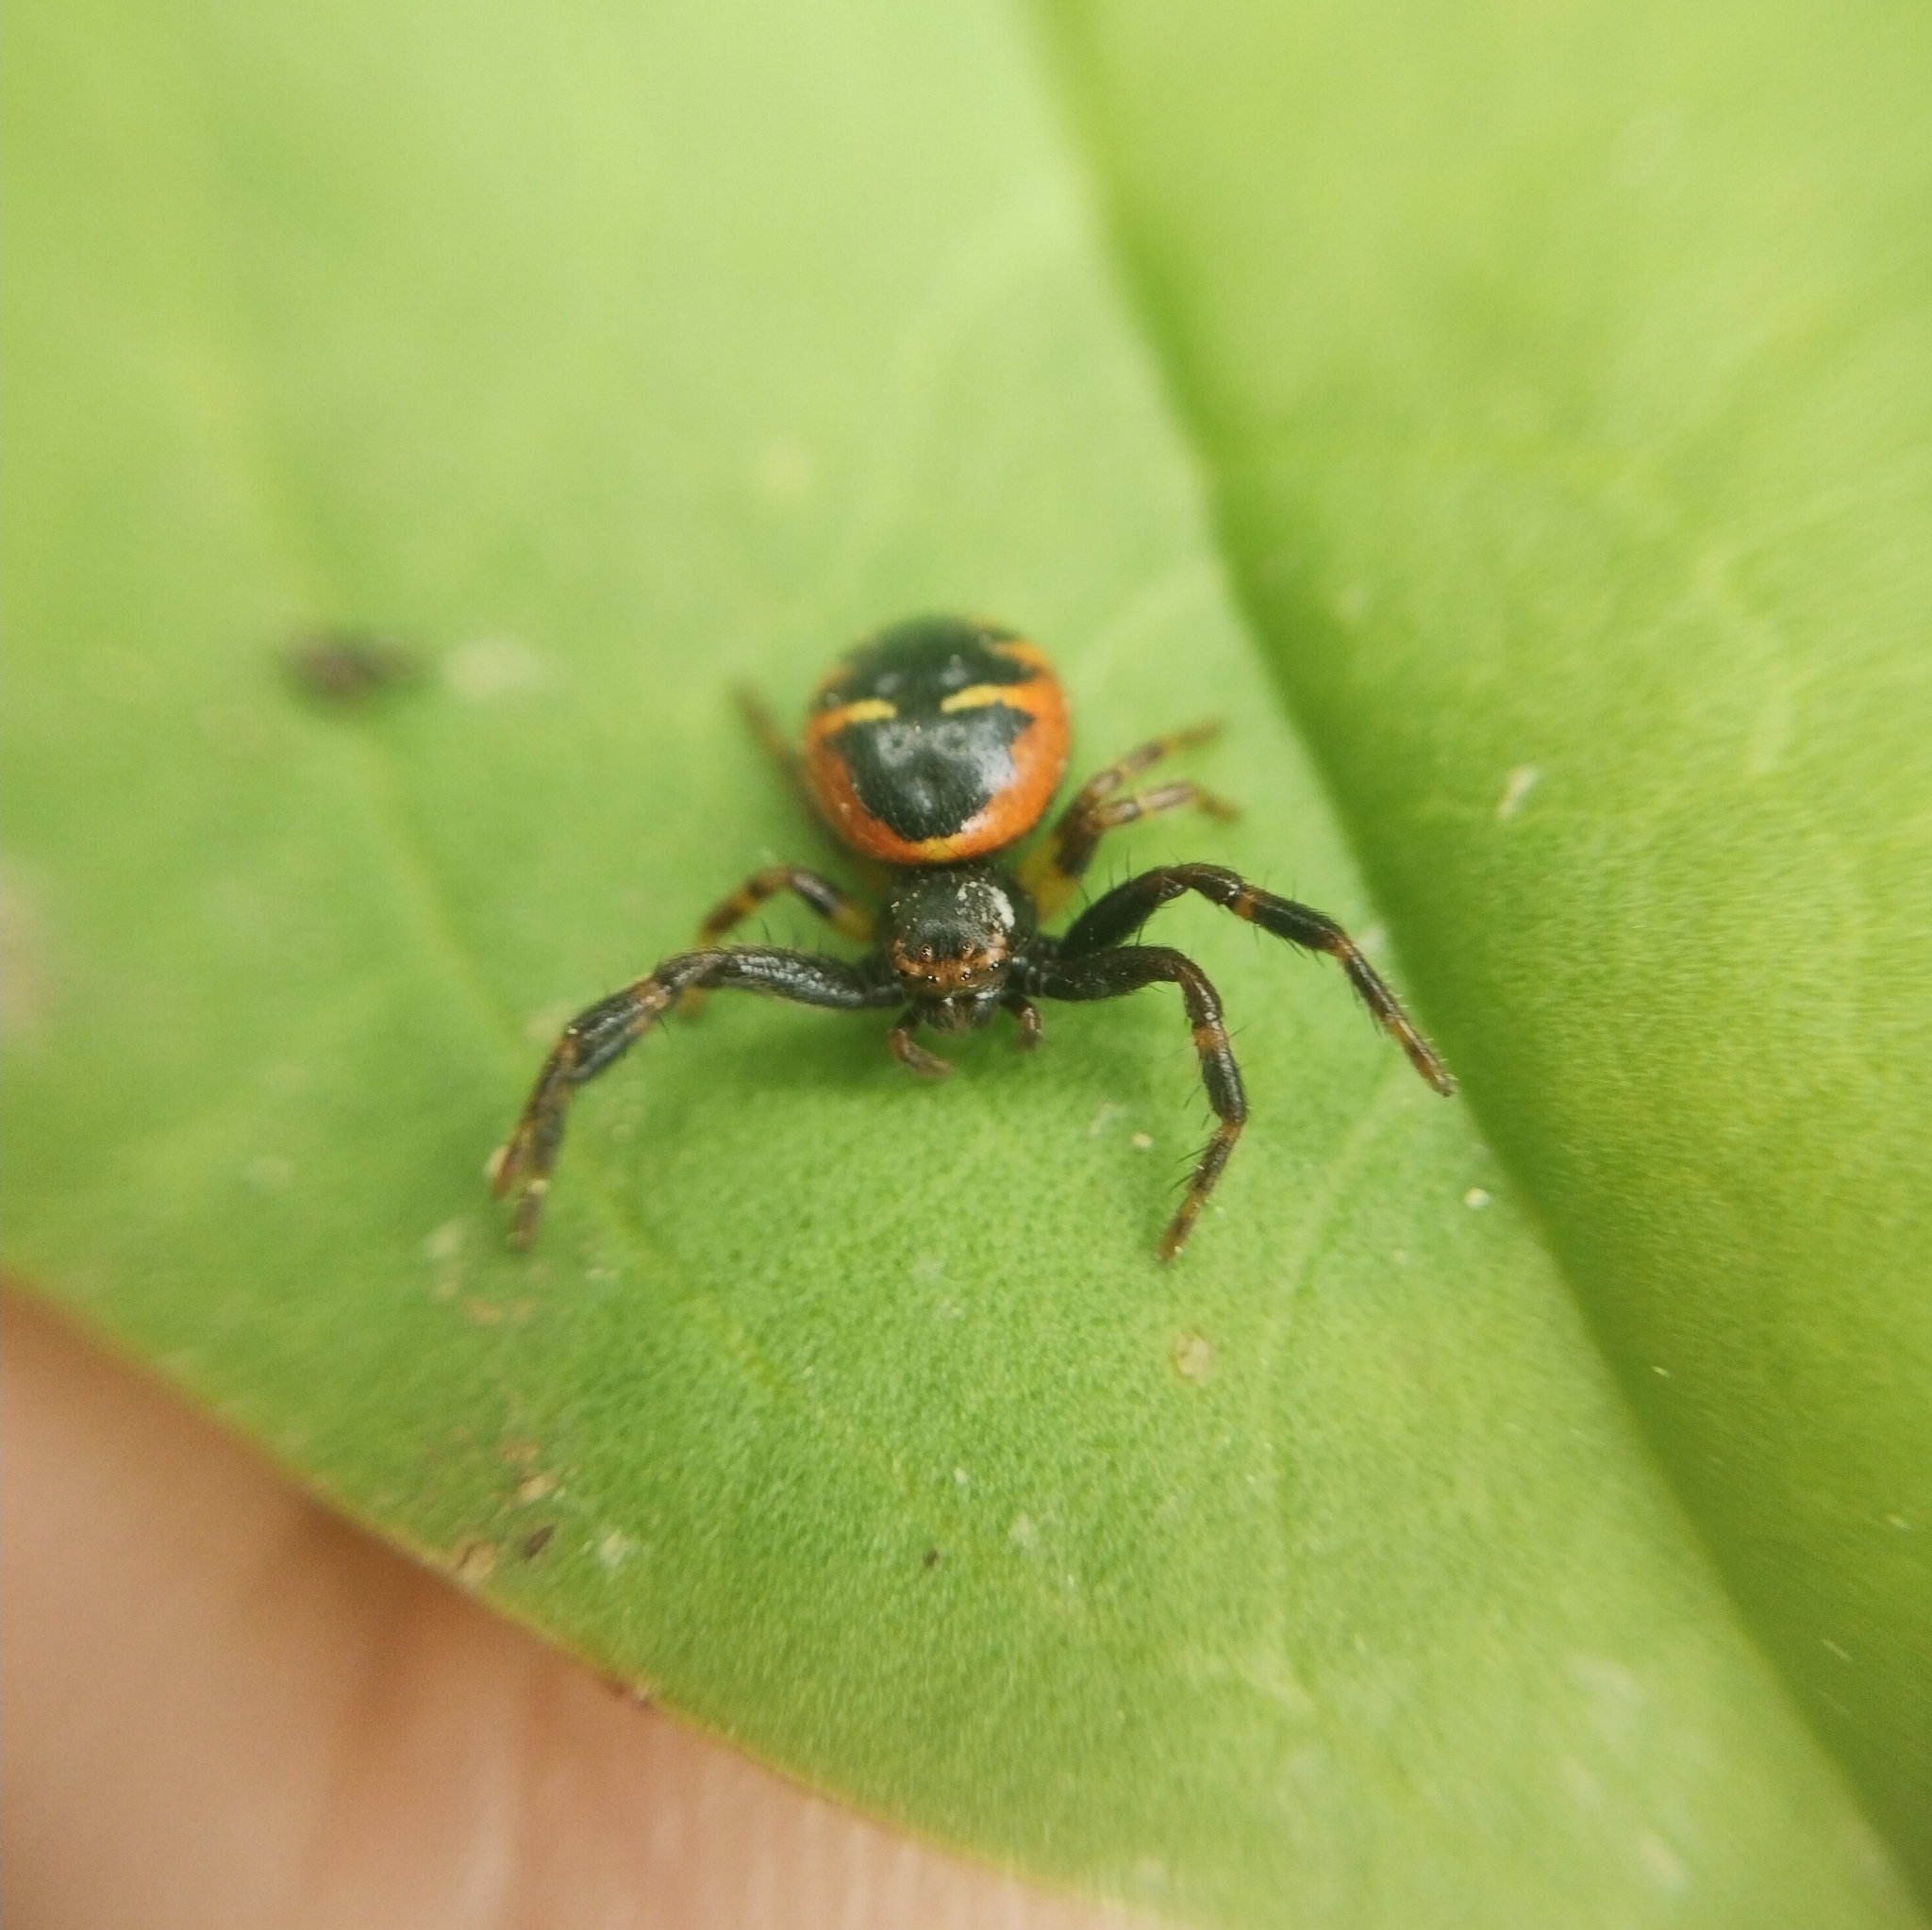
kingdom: Animalia
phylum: Arthropoda
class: Arachnida
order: Araneae
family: Thomisidae
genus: Synema
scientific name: Synema globosum
